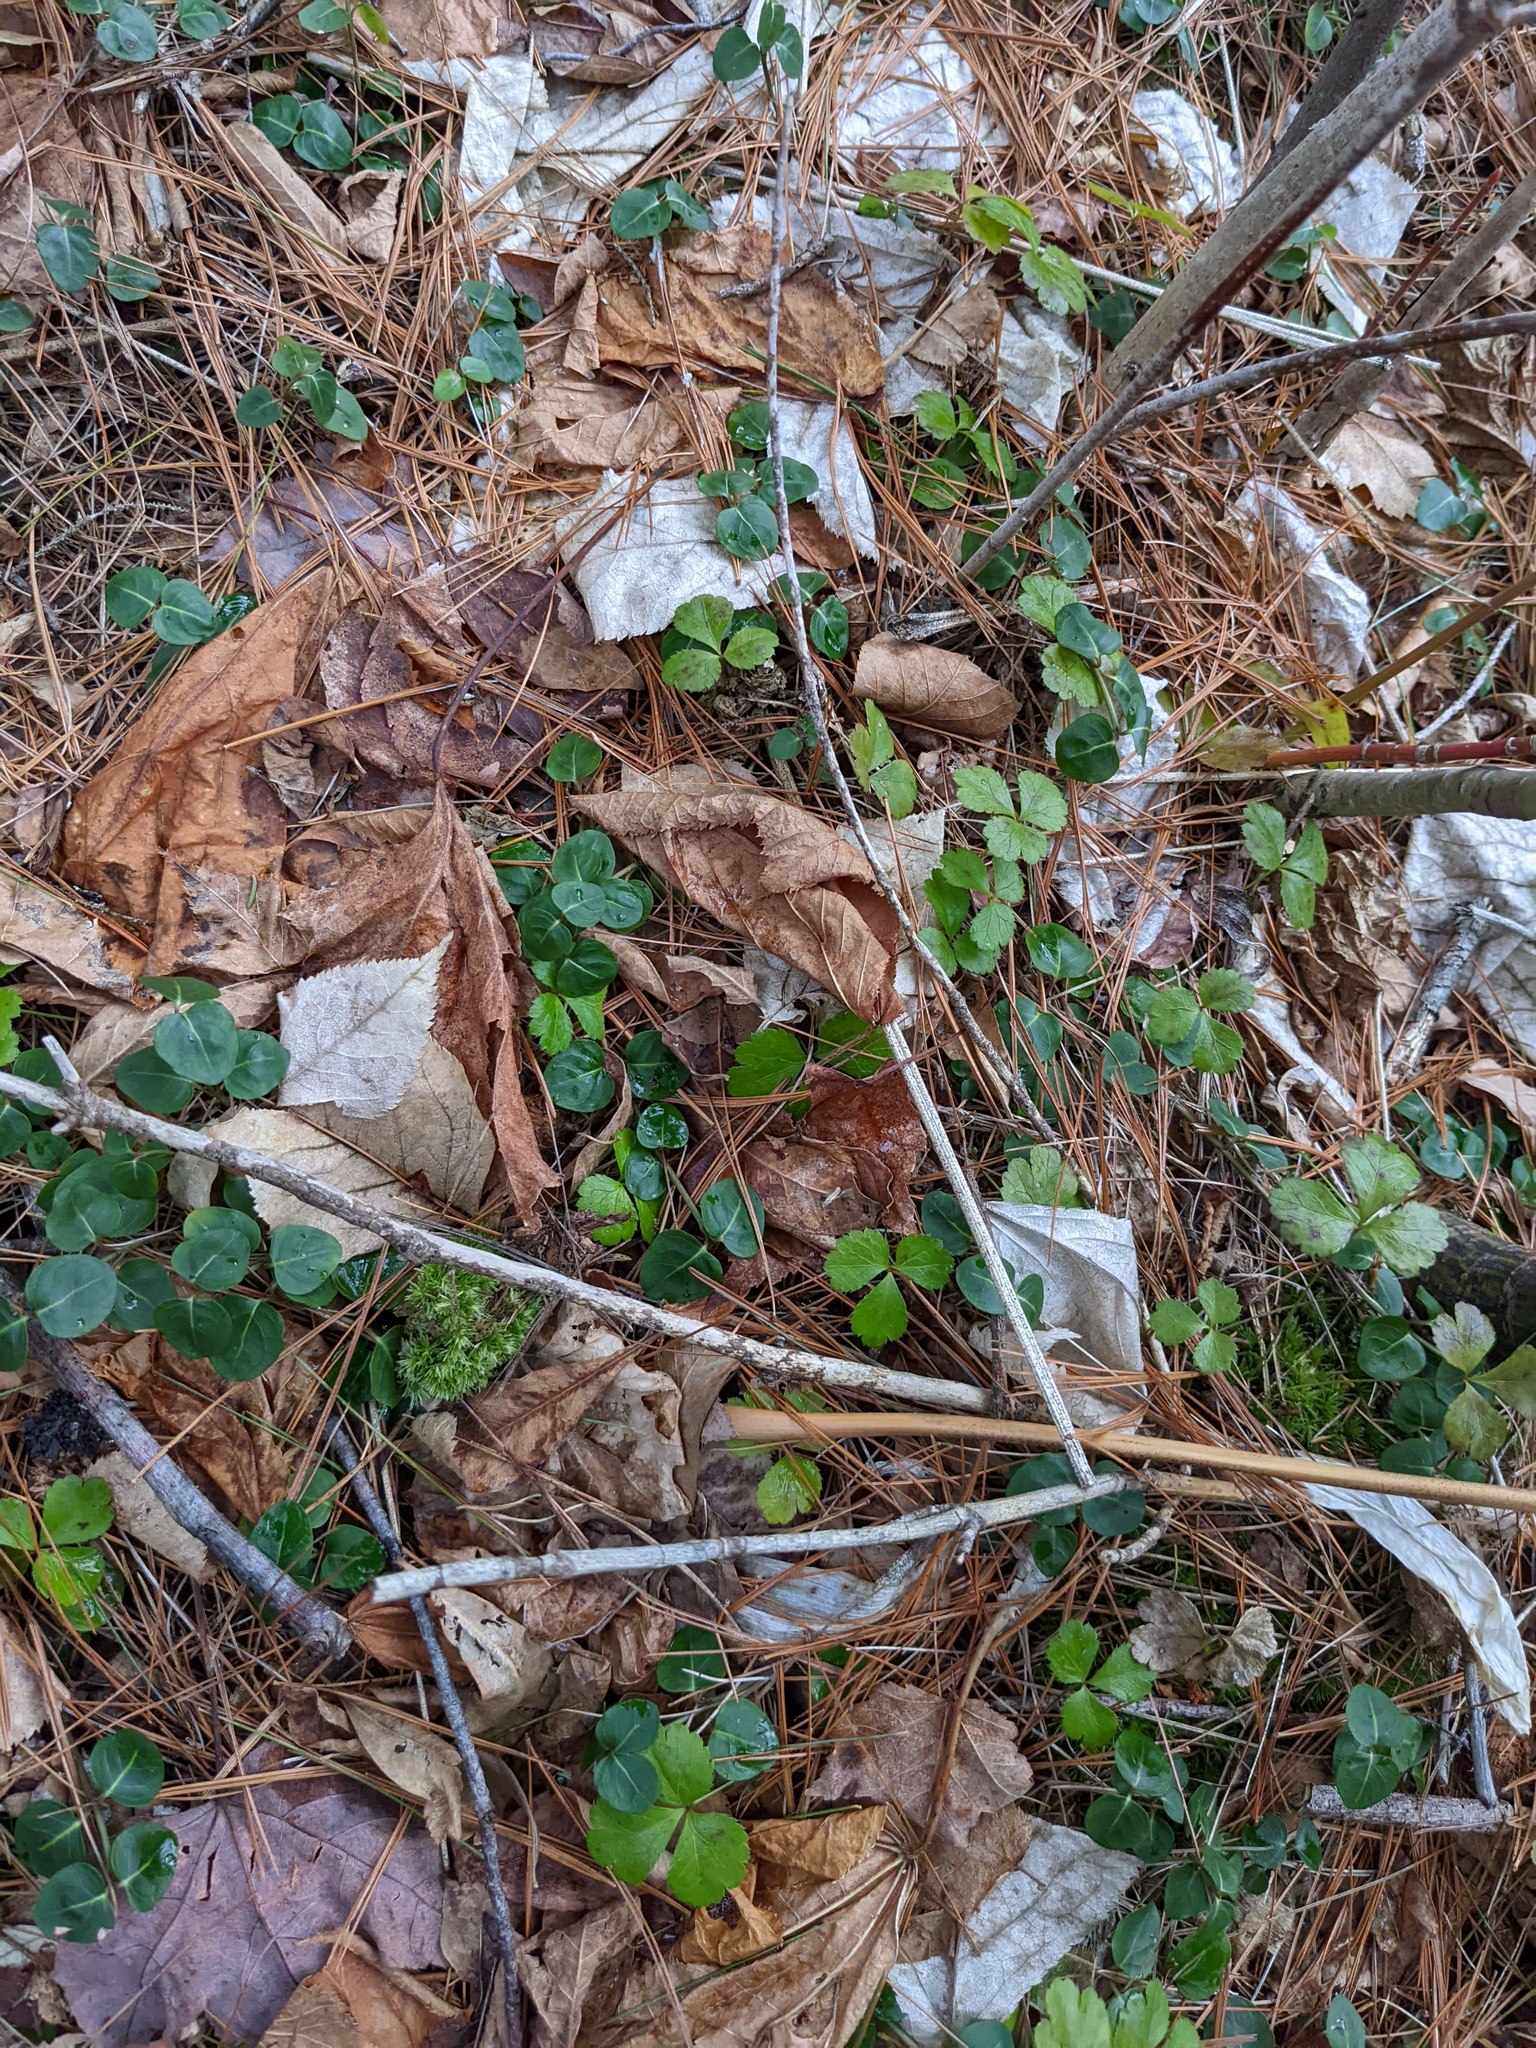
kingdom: Plantae
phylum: Tracheophyta
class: Magnoliopsida
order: Ranunculales
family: Ranunculaceae
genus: Coptis
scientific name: Coptis trifolia
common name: Canker-root
